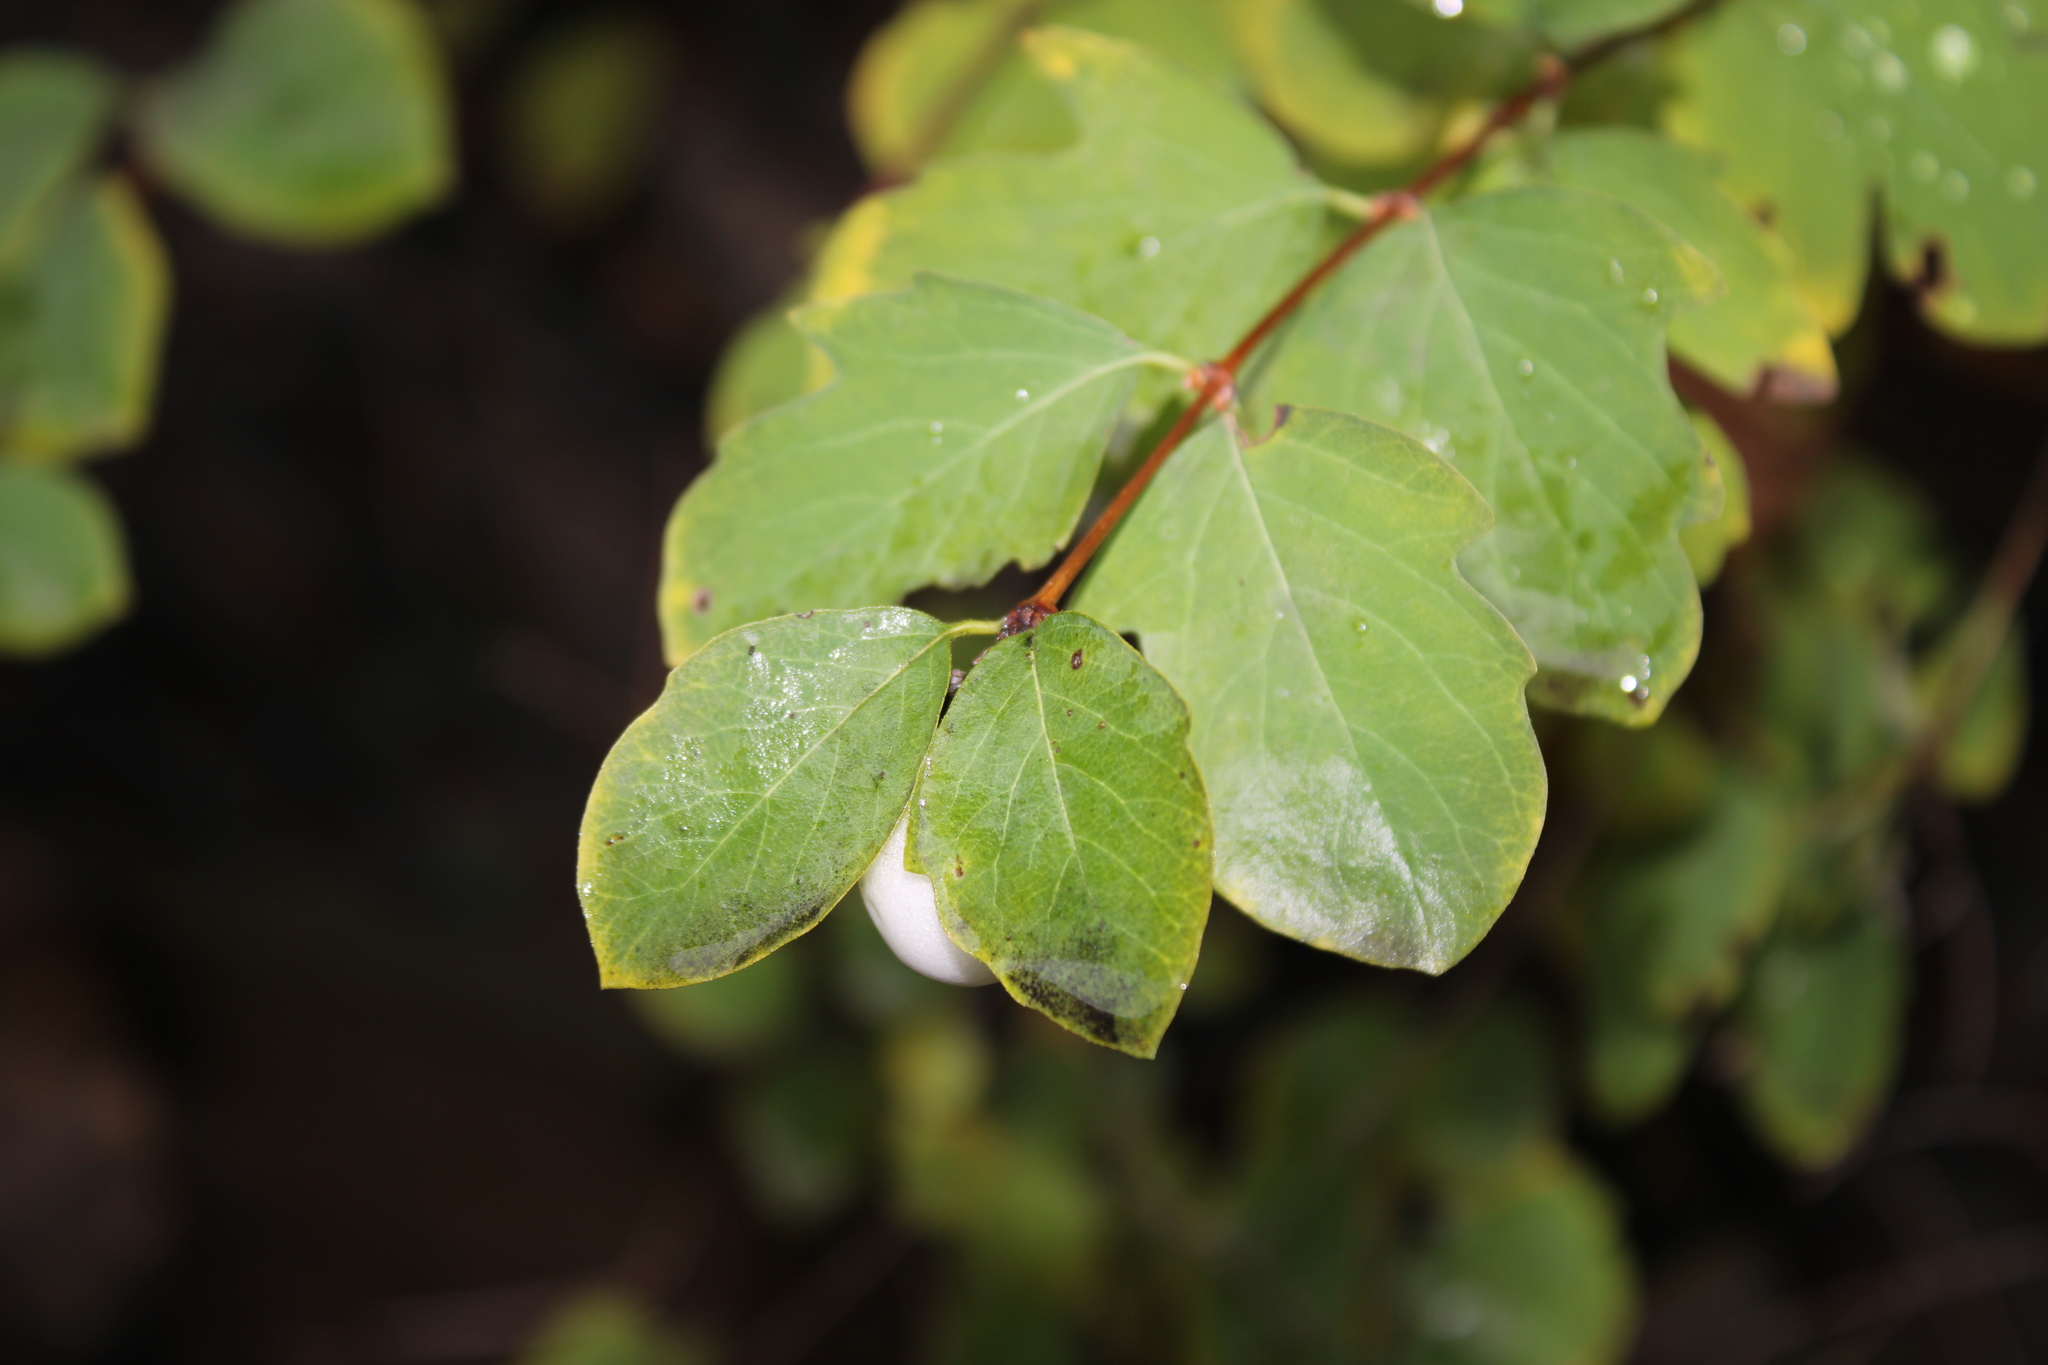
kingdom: Plantae
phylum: Tracheophyta
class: Magnoliopsida
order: Dipsacales
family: Caprifoliaceae
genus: Symphoricarpos
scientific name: Symphoricarpos albus
